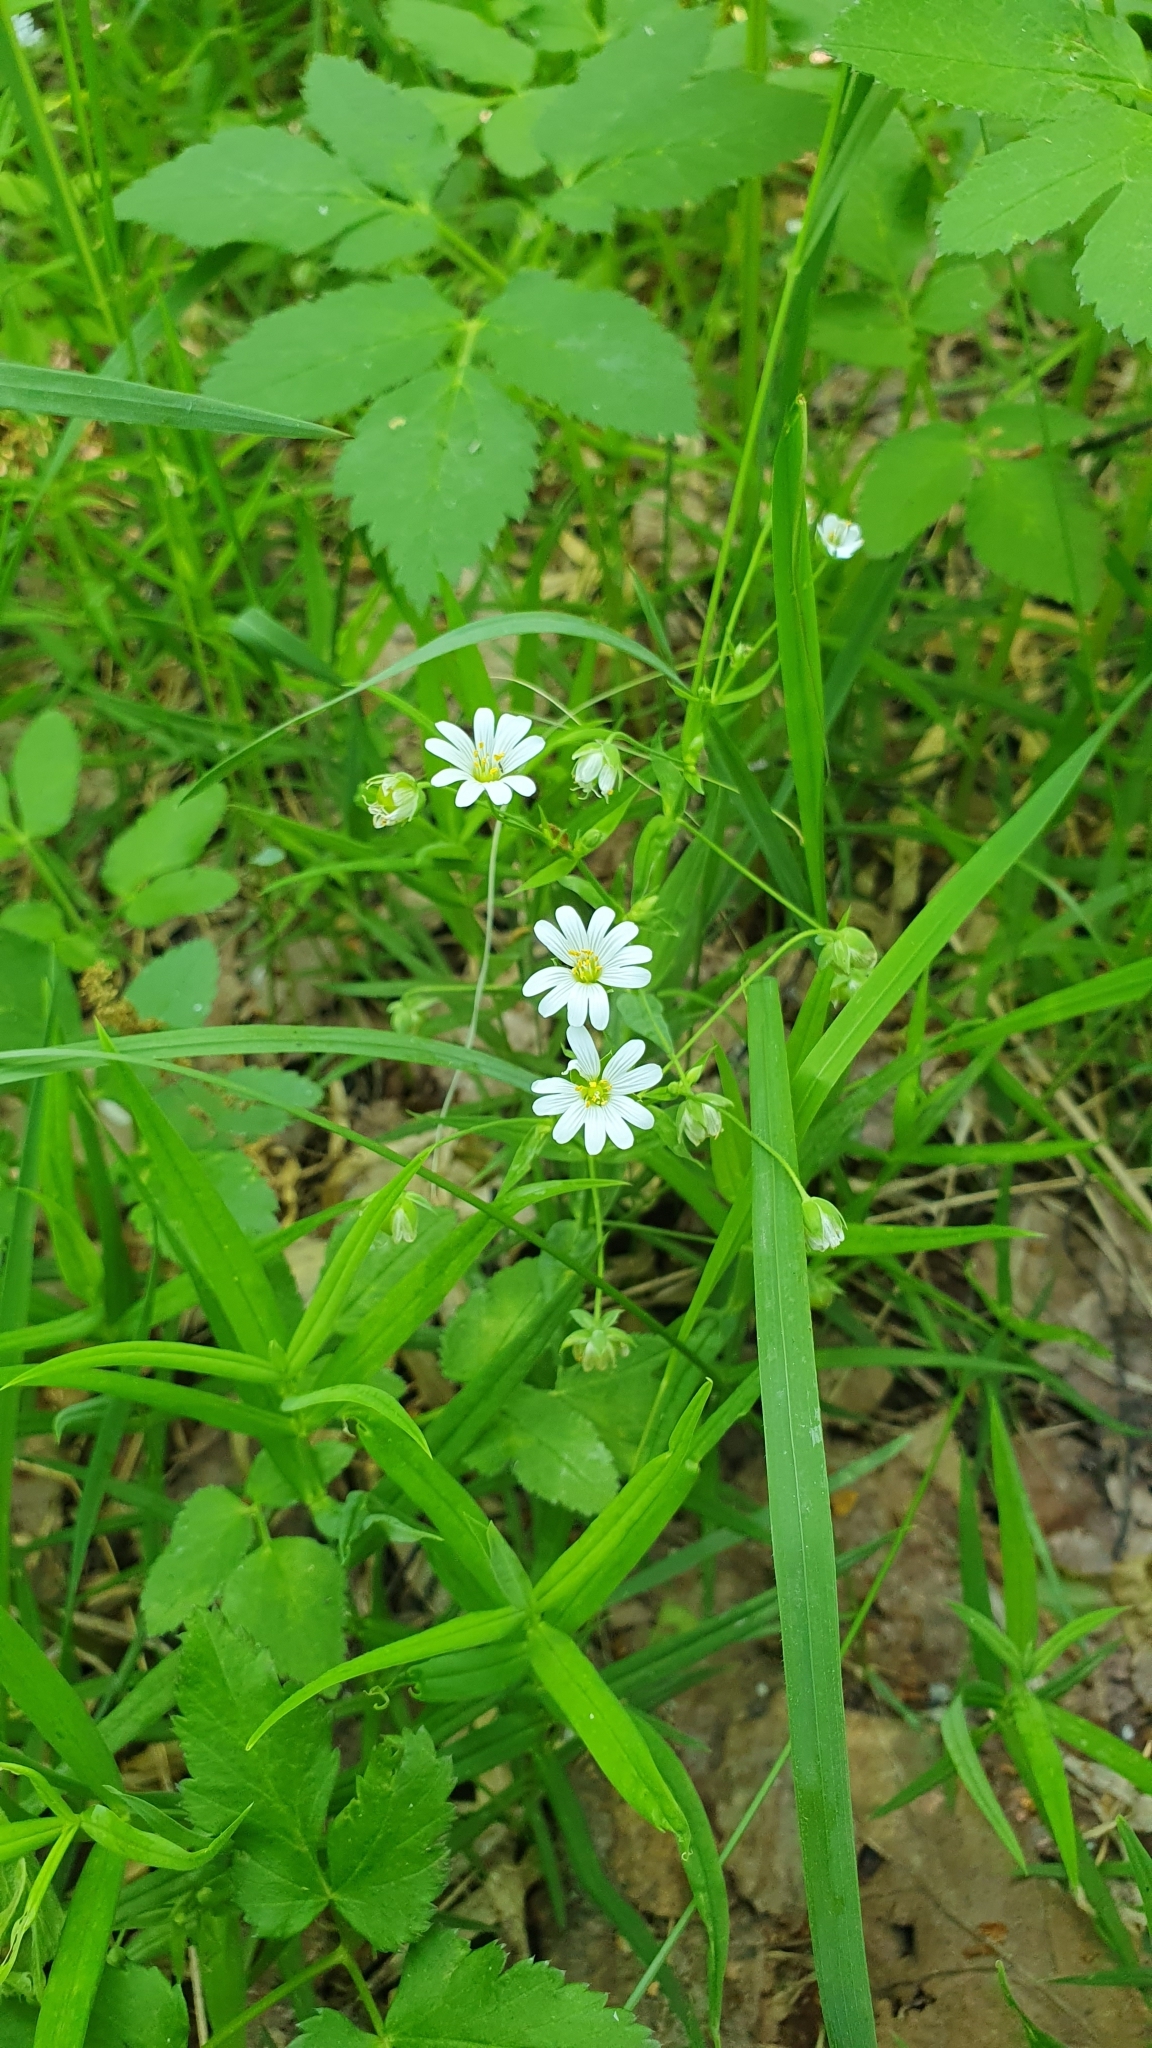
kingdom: Plantae
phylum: Tracheophyta
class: Magnoliopsida
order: Caryophyllales
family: Caryophyllaceae
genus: Rabelera
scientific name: Rabelera holostea
